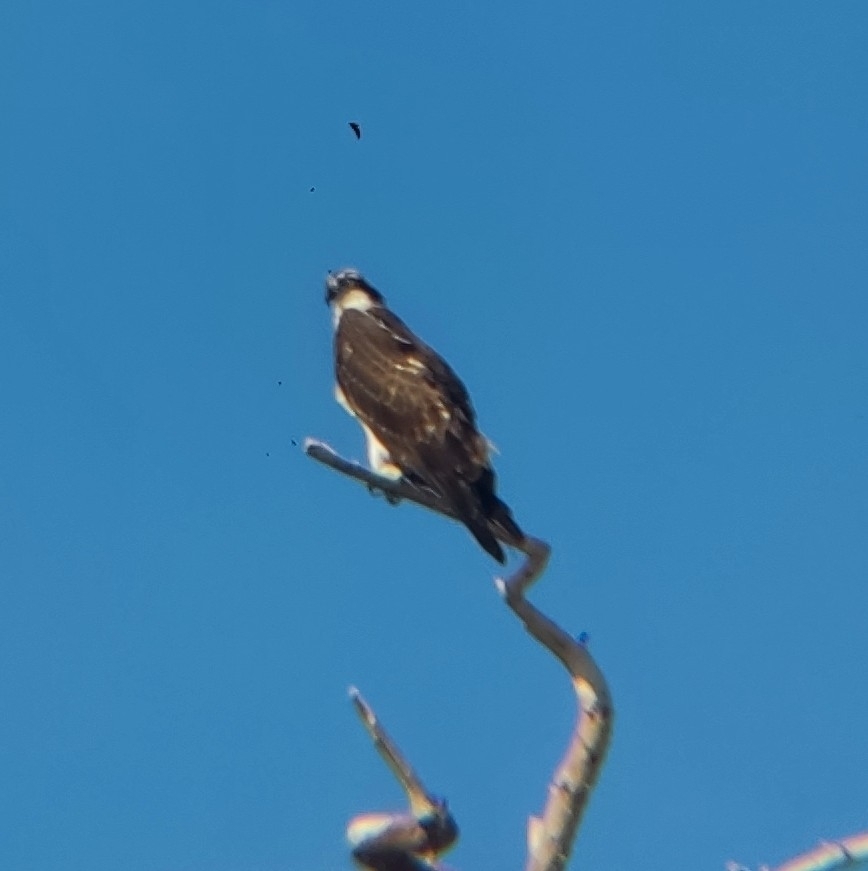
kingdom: Animalia
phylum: Chordata
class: Aves
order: Accipitriformes
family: Pandionidae
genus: Pandion
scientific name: Pandion haliaetus
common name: Osprey
